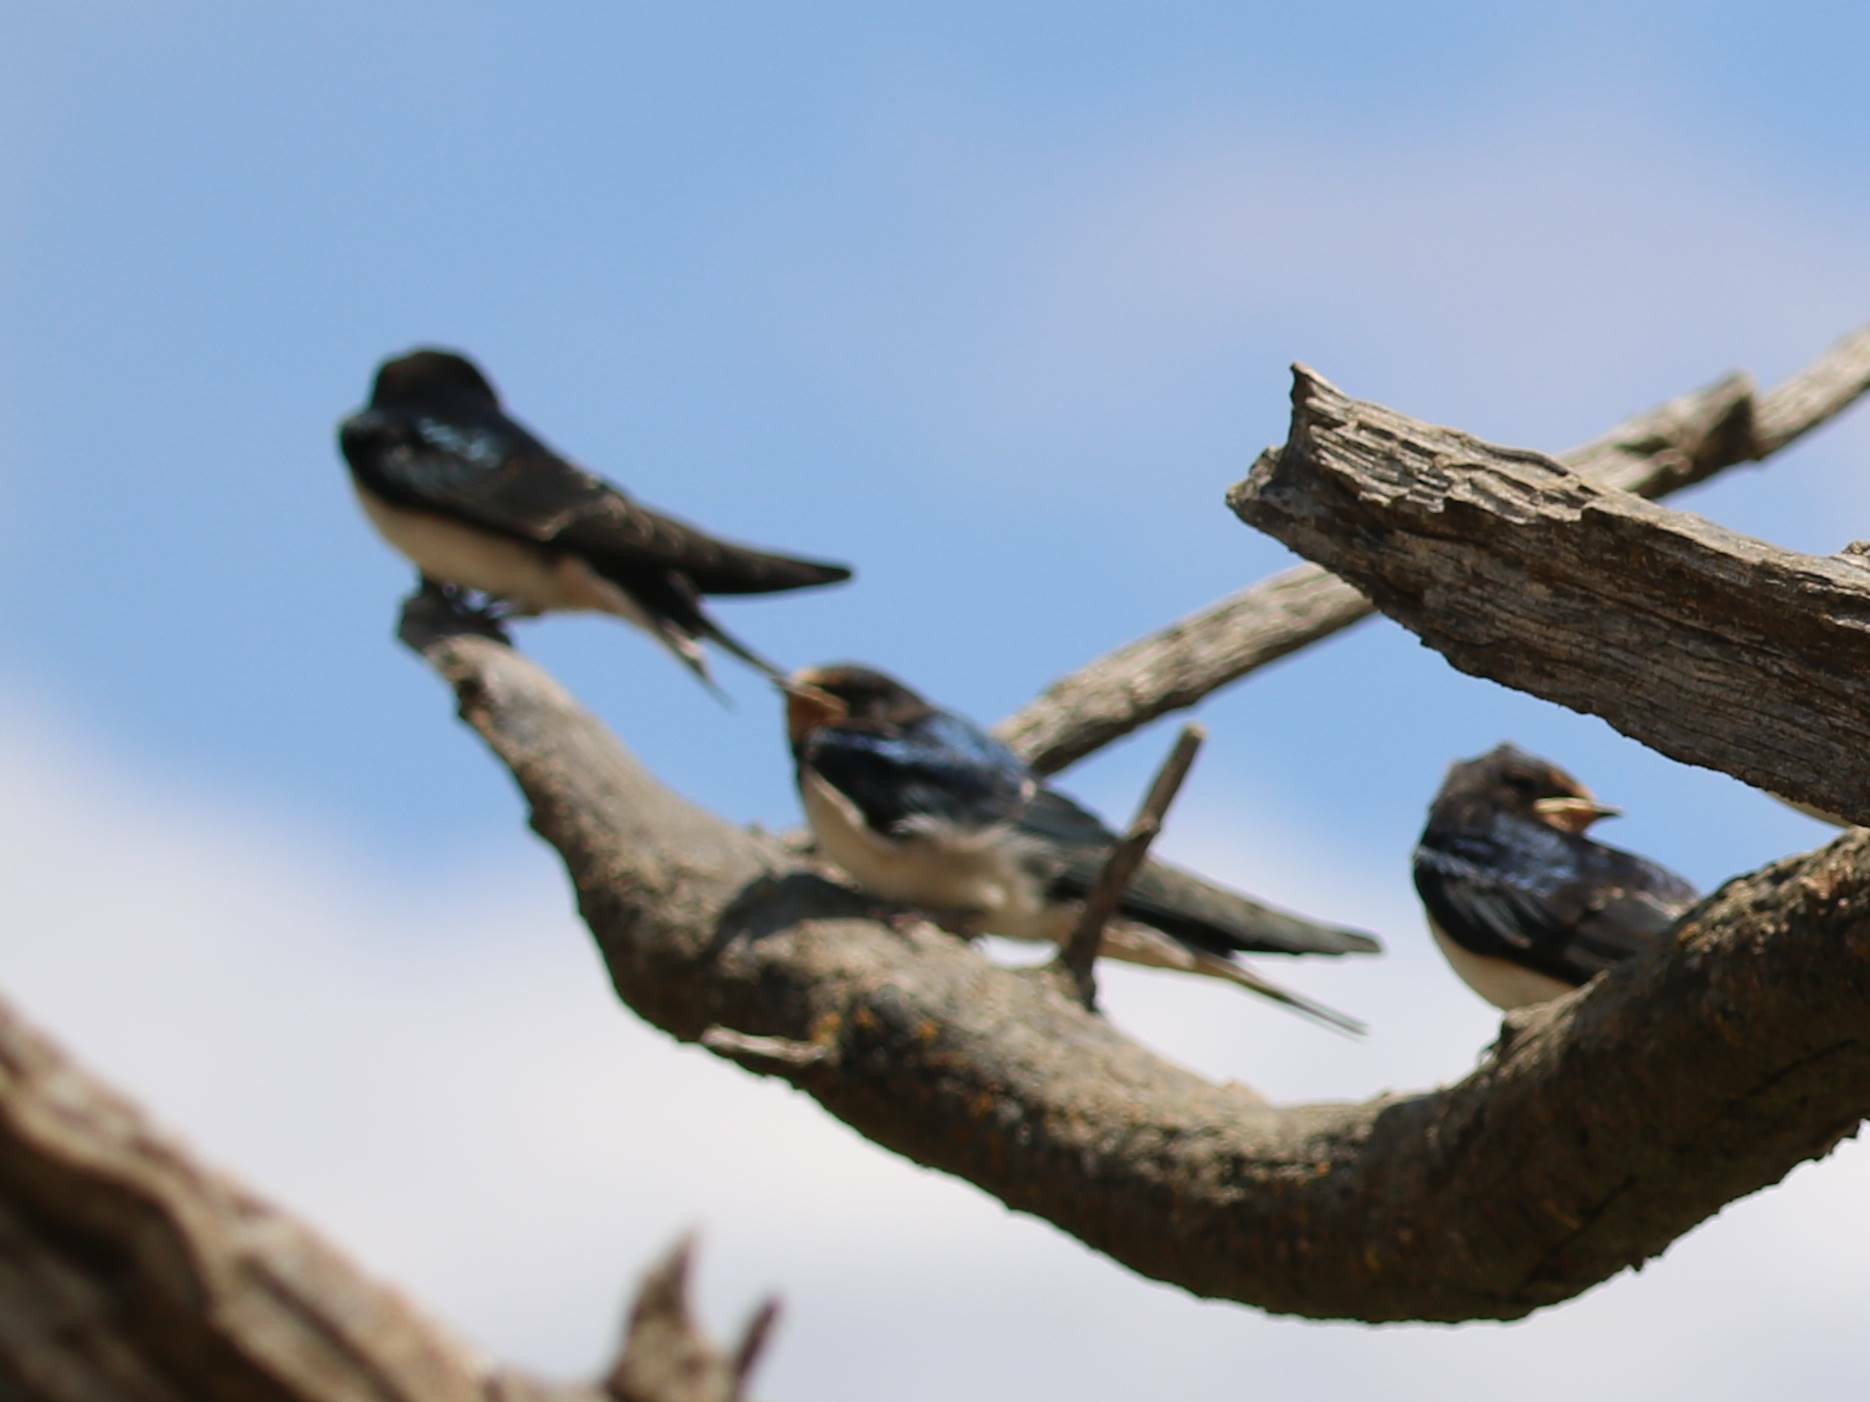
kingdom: Animalia
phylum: Chordata
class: Aves
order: Passeriformes
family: Hirundinidae
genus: Hirundo
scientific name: Hirundo rustica
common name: Barn swallow
